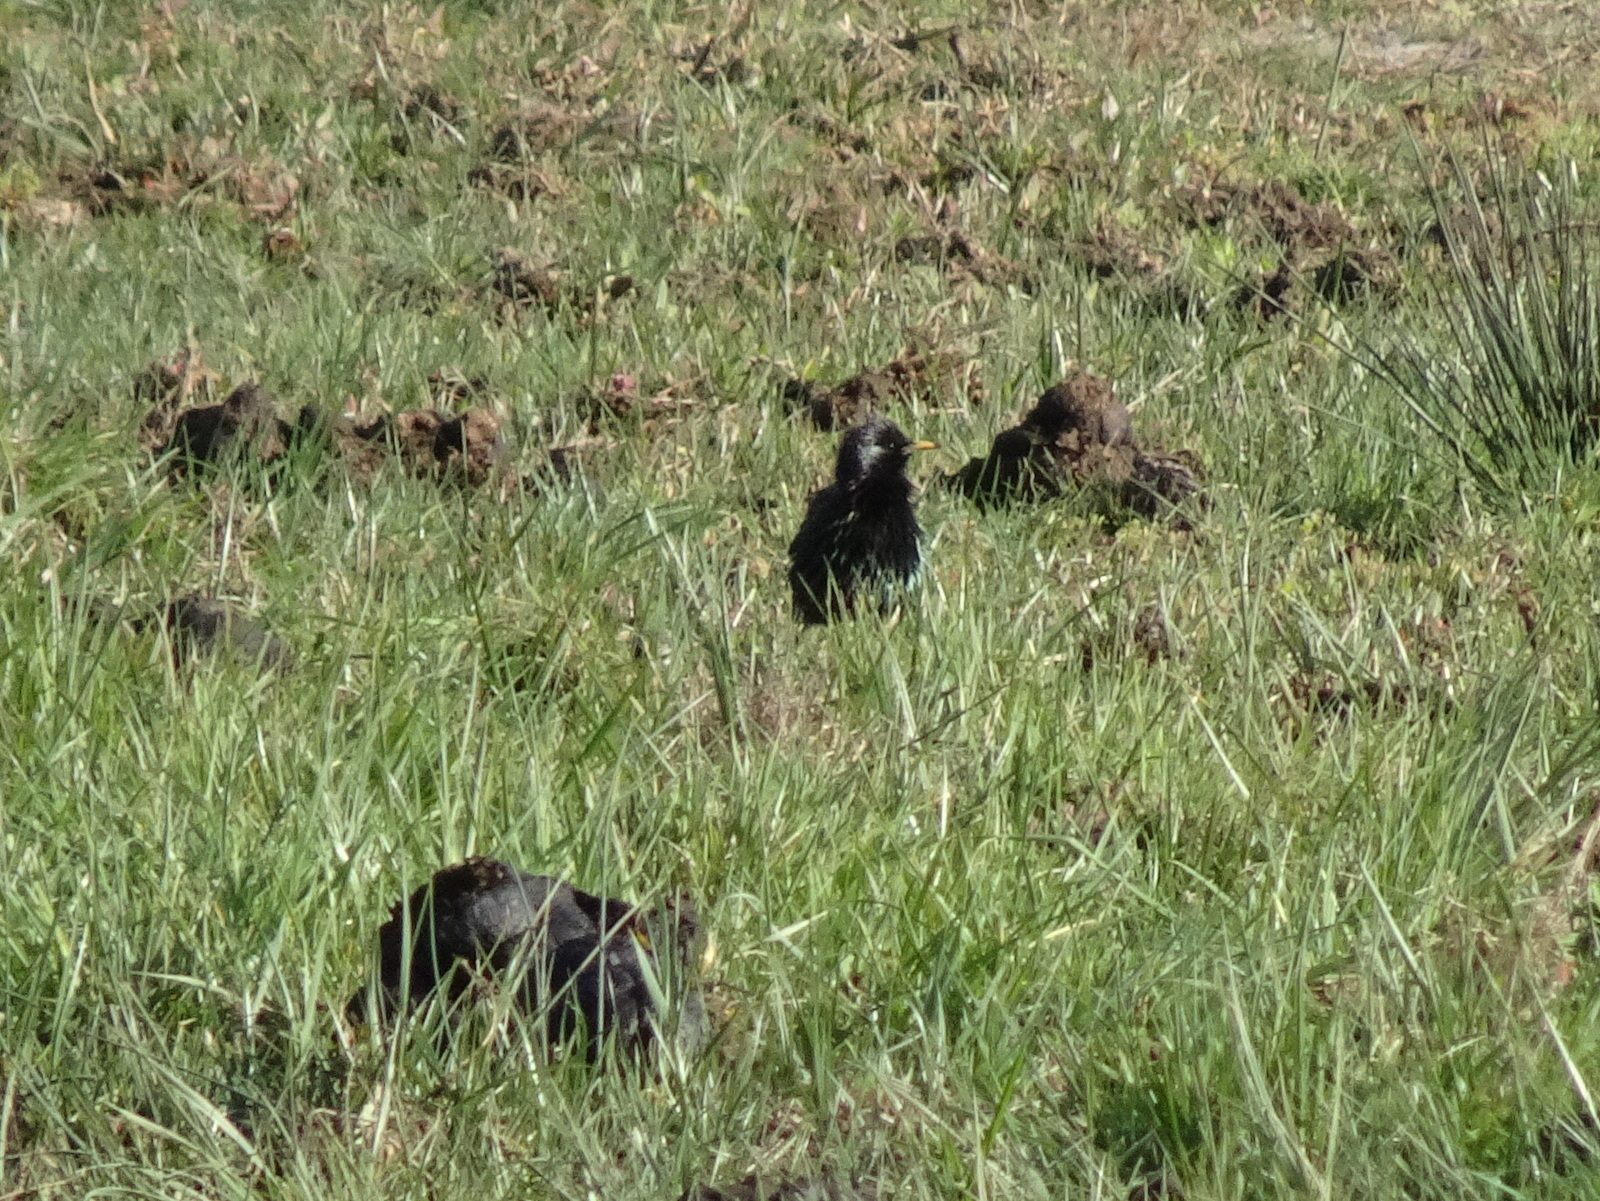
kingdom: Animalia
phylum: Chordata
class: Aves
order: Passeriformes
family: Sturnidae
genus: Sturnus
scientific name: Sturnus vulgaris
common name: Common starling
